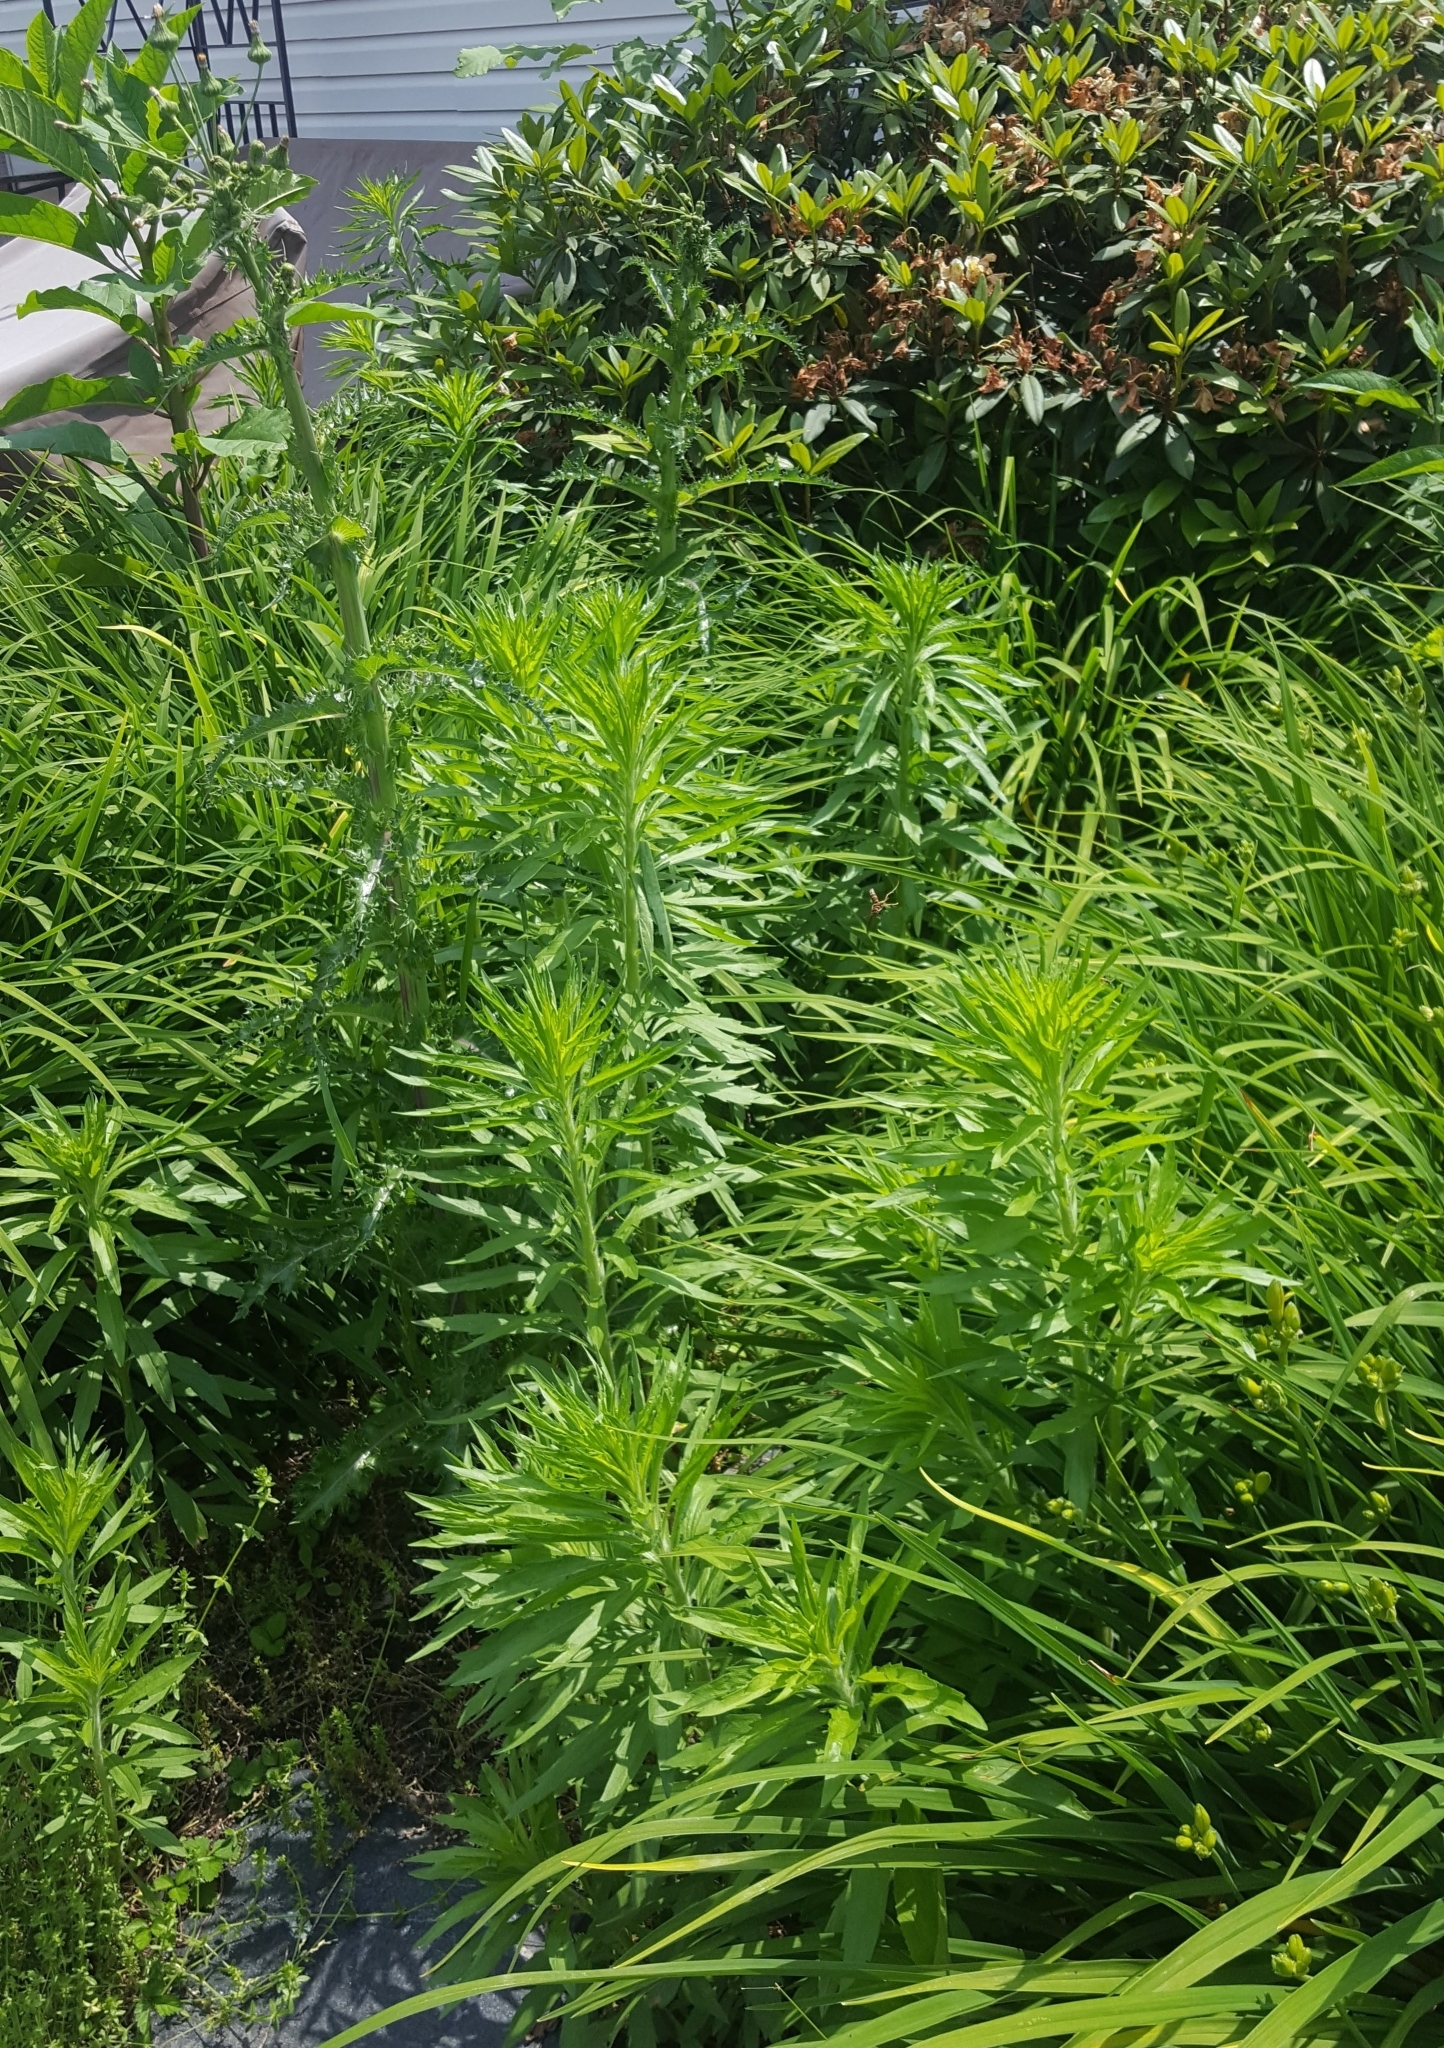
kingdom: Plantae
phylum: Tracheophyta
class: Magnoliopsida
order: Caryophyllales
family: Phytolaccaceae
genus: Phytolacca
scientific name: Phytolacca americana
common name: American pokeweed
